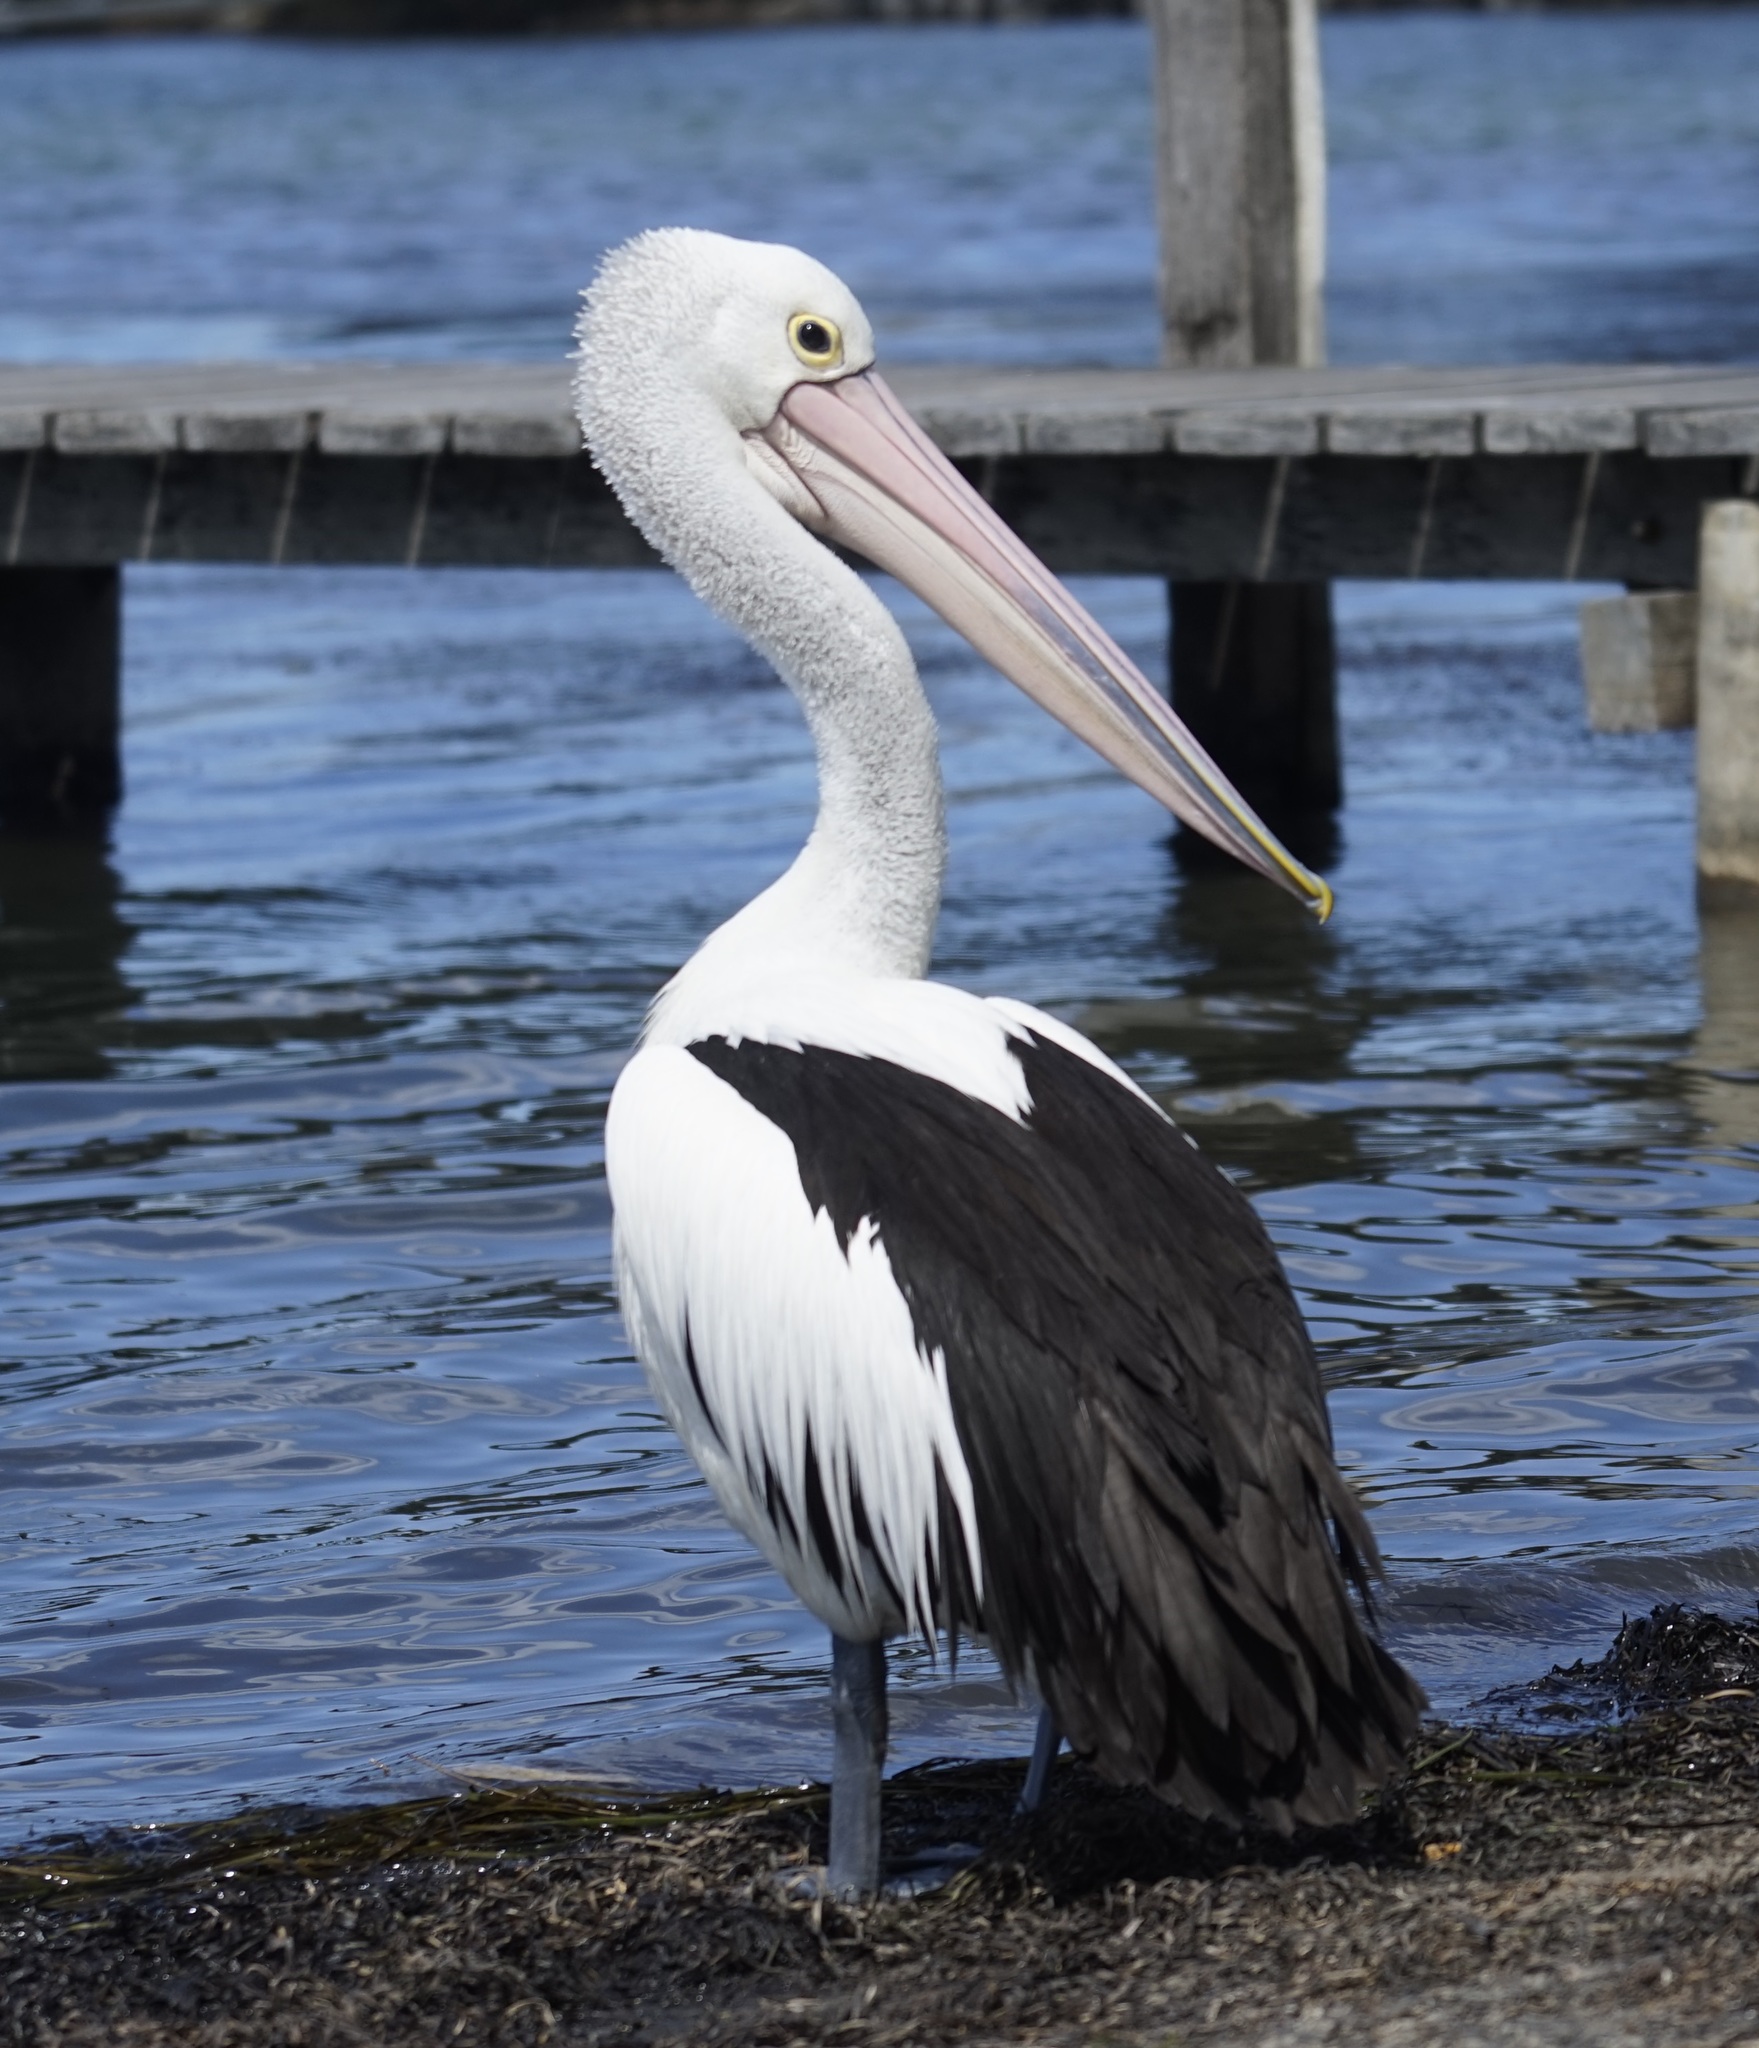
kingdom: Animalia
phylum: Chordata
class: Aves
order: Pelecaniformes
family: Pelecanidae
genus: Pelecanus
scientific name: Pelecanus conspicillatus
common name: Australian pelican
